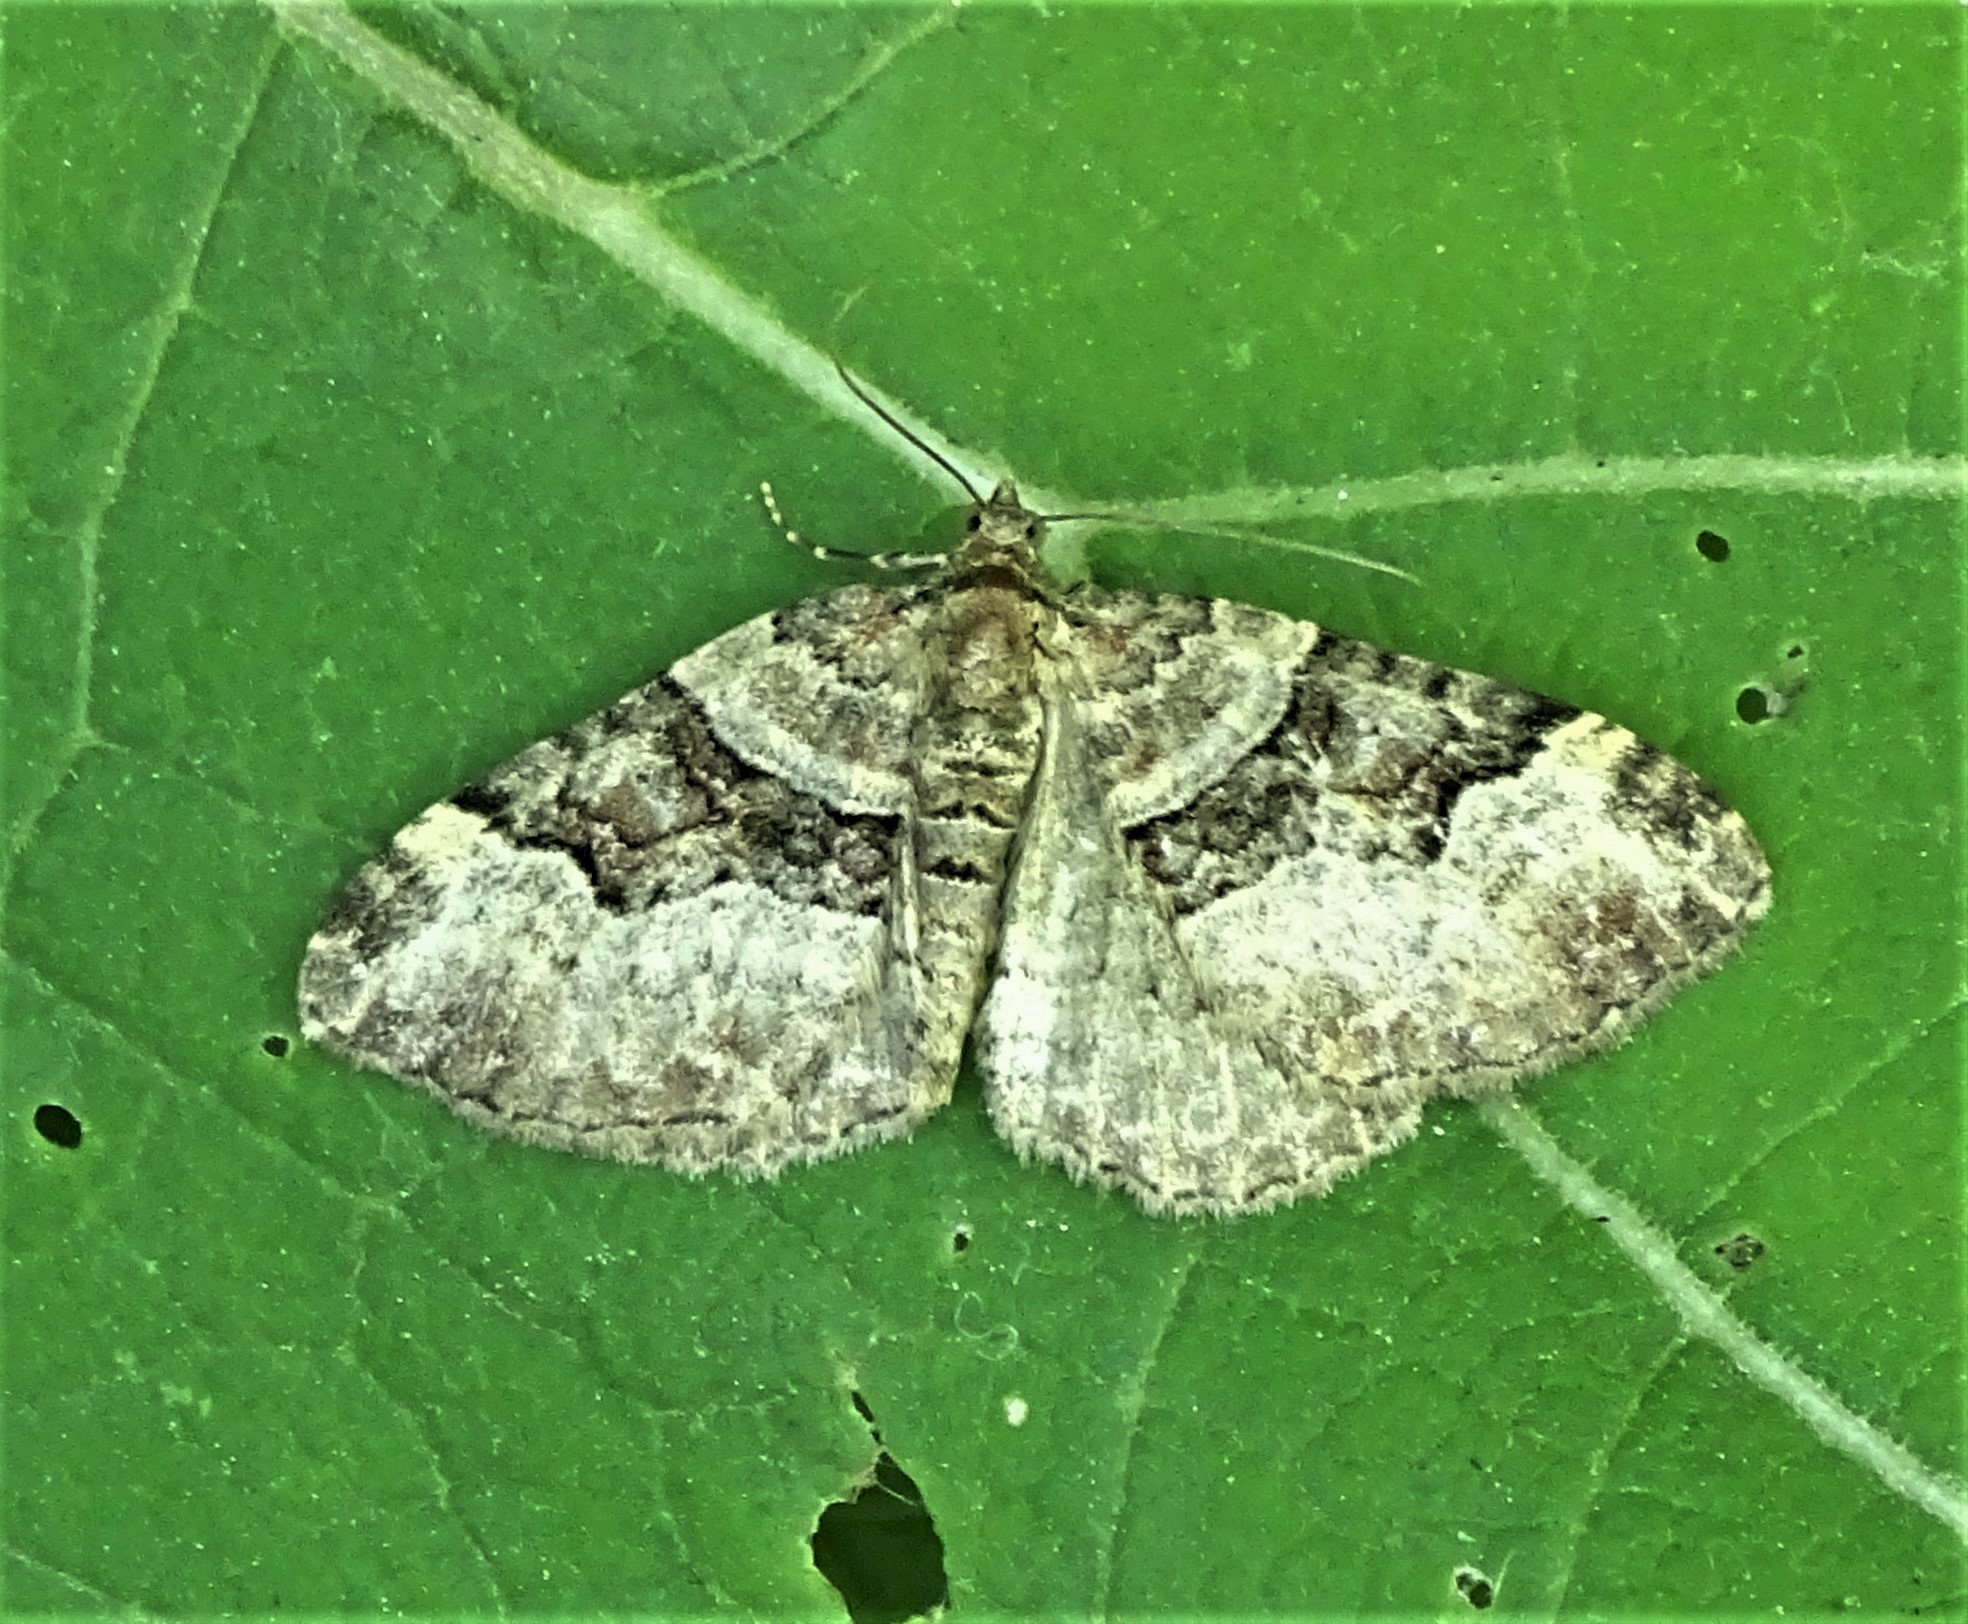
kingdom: Animalia
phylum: Arthropoda
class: Insecta
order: Lepidoptera
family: Geometridae
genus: Xanthorhoe
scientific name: Xanthorhoe lacustrata
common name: Toothed brown carpet
